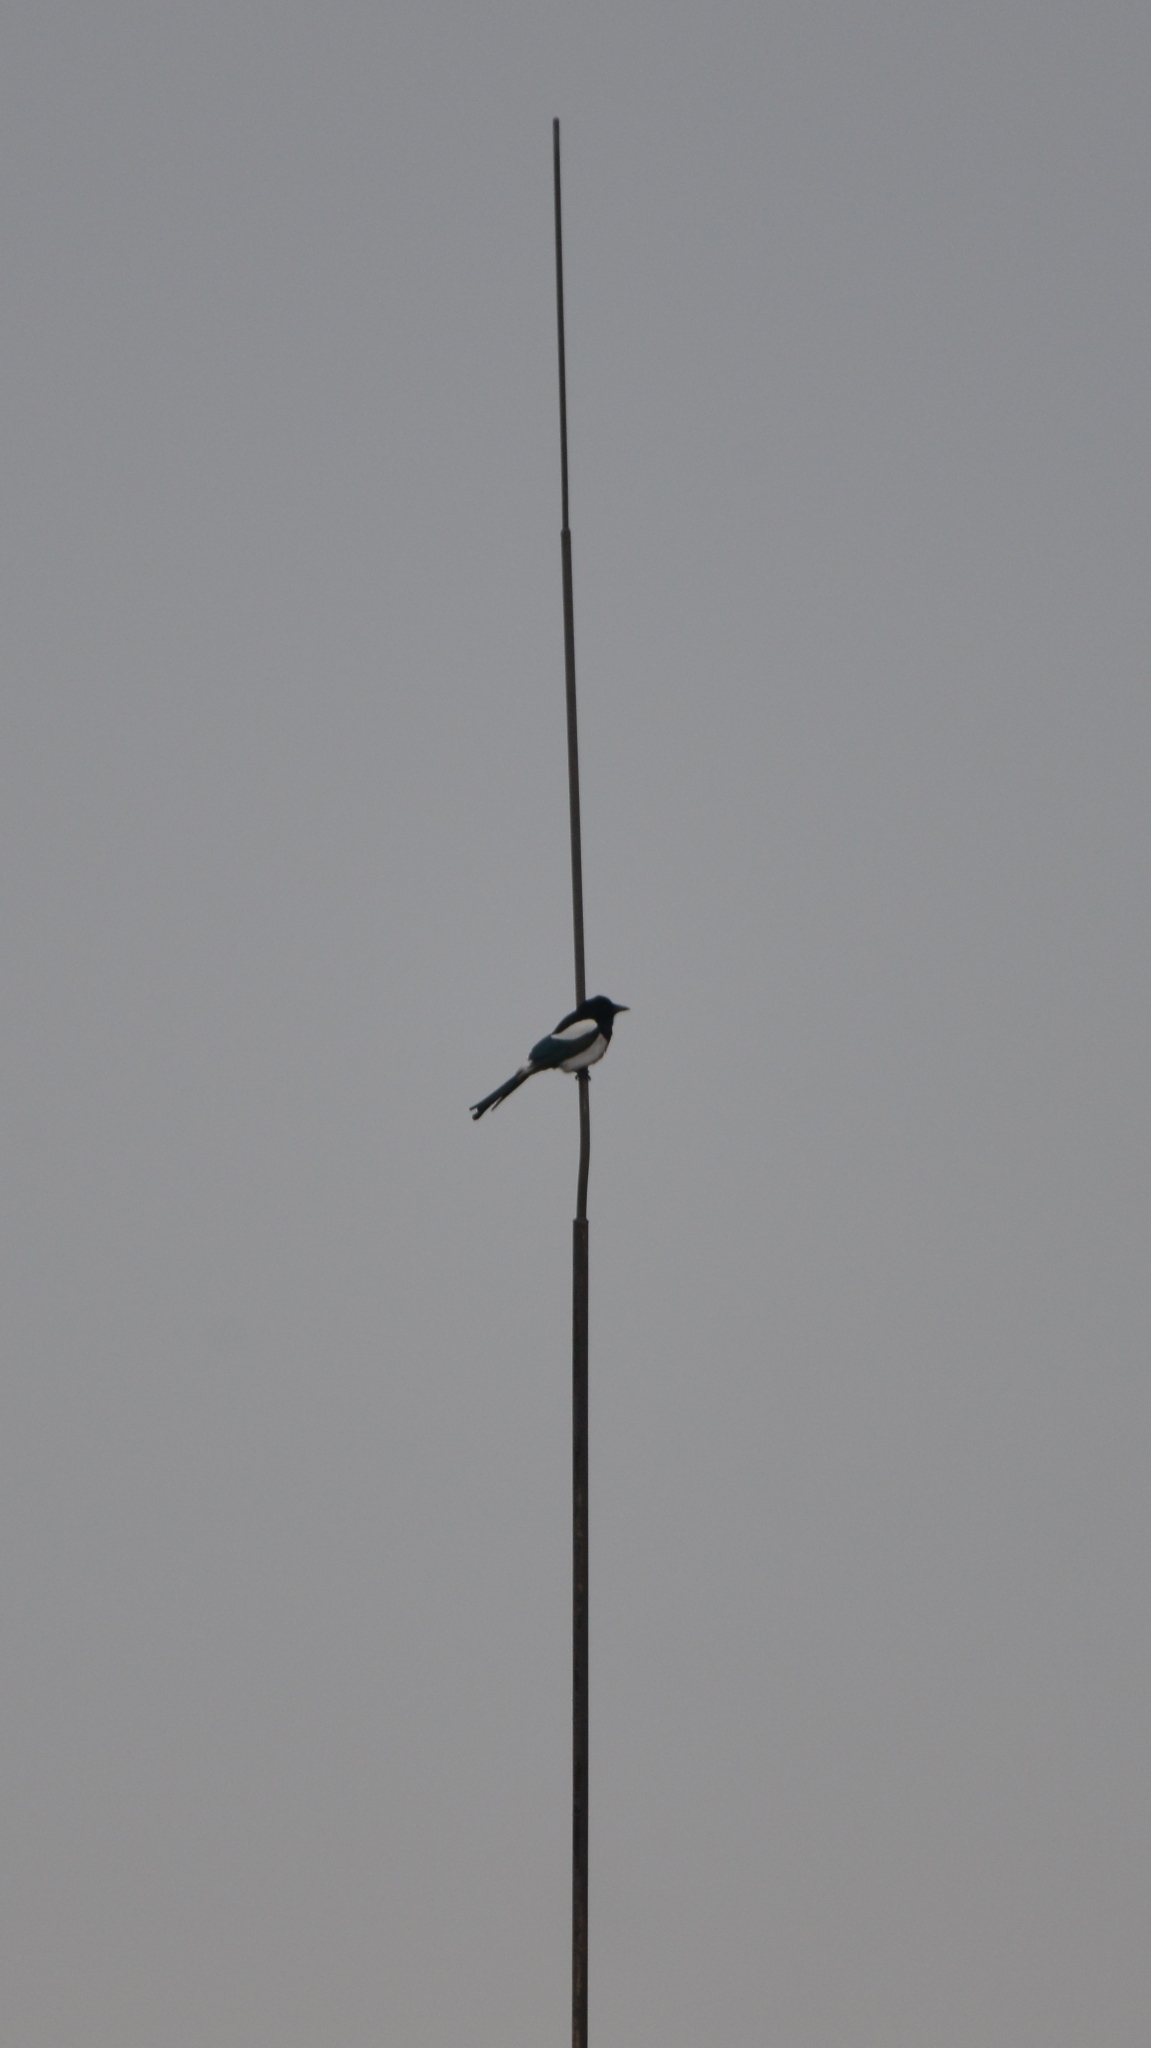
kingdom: Animalia
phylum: Chordata
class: Aves
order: Passeriformes
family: Corvidae
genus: Pica
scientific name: Pica pica
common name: Eurasian magpie
